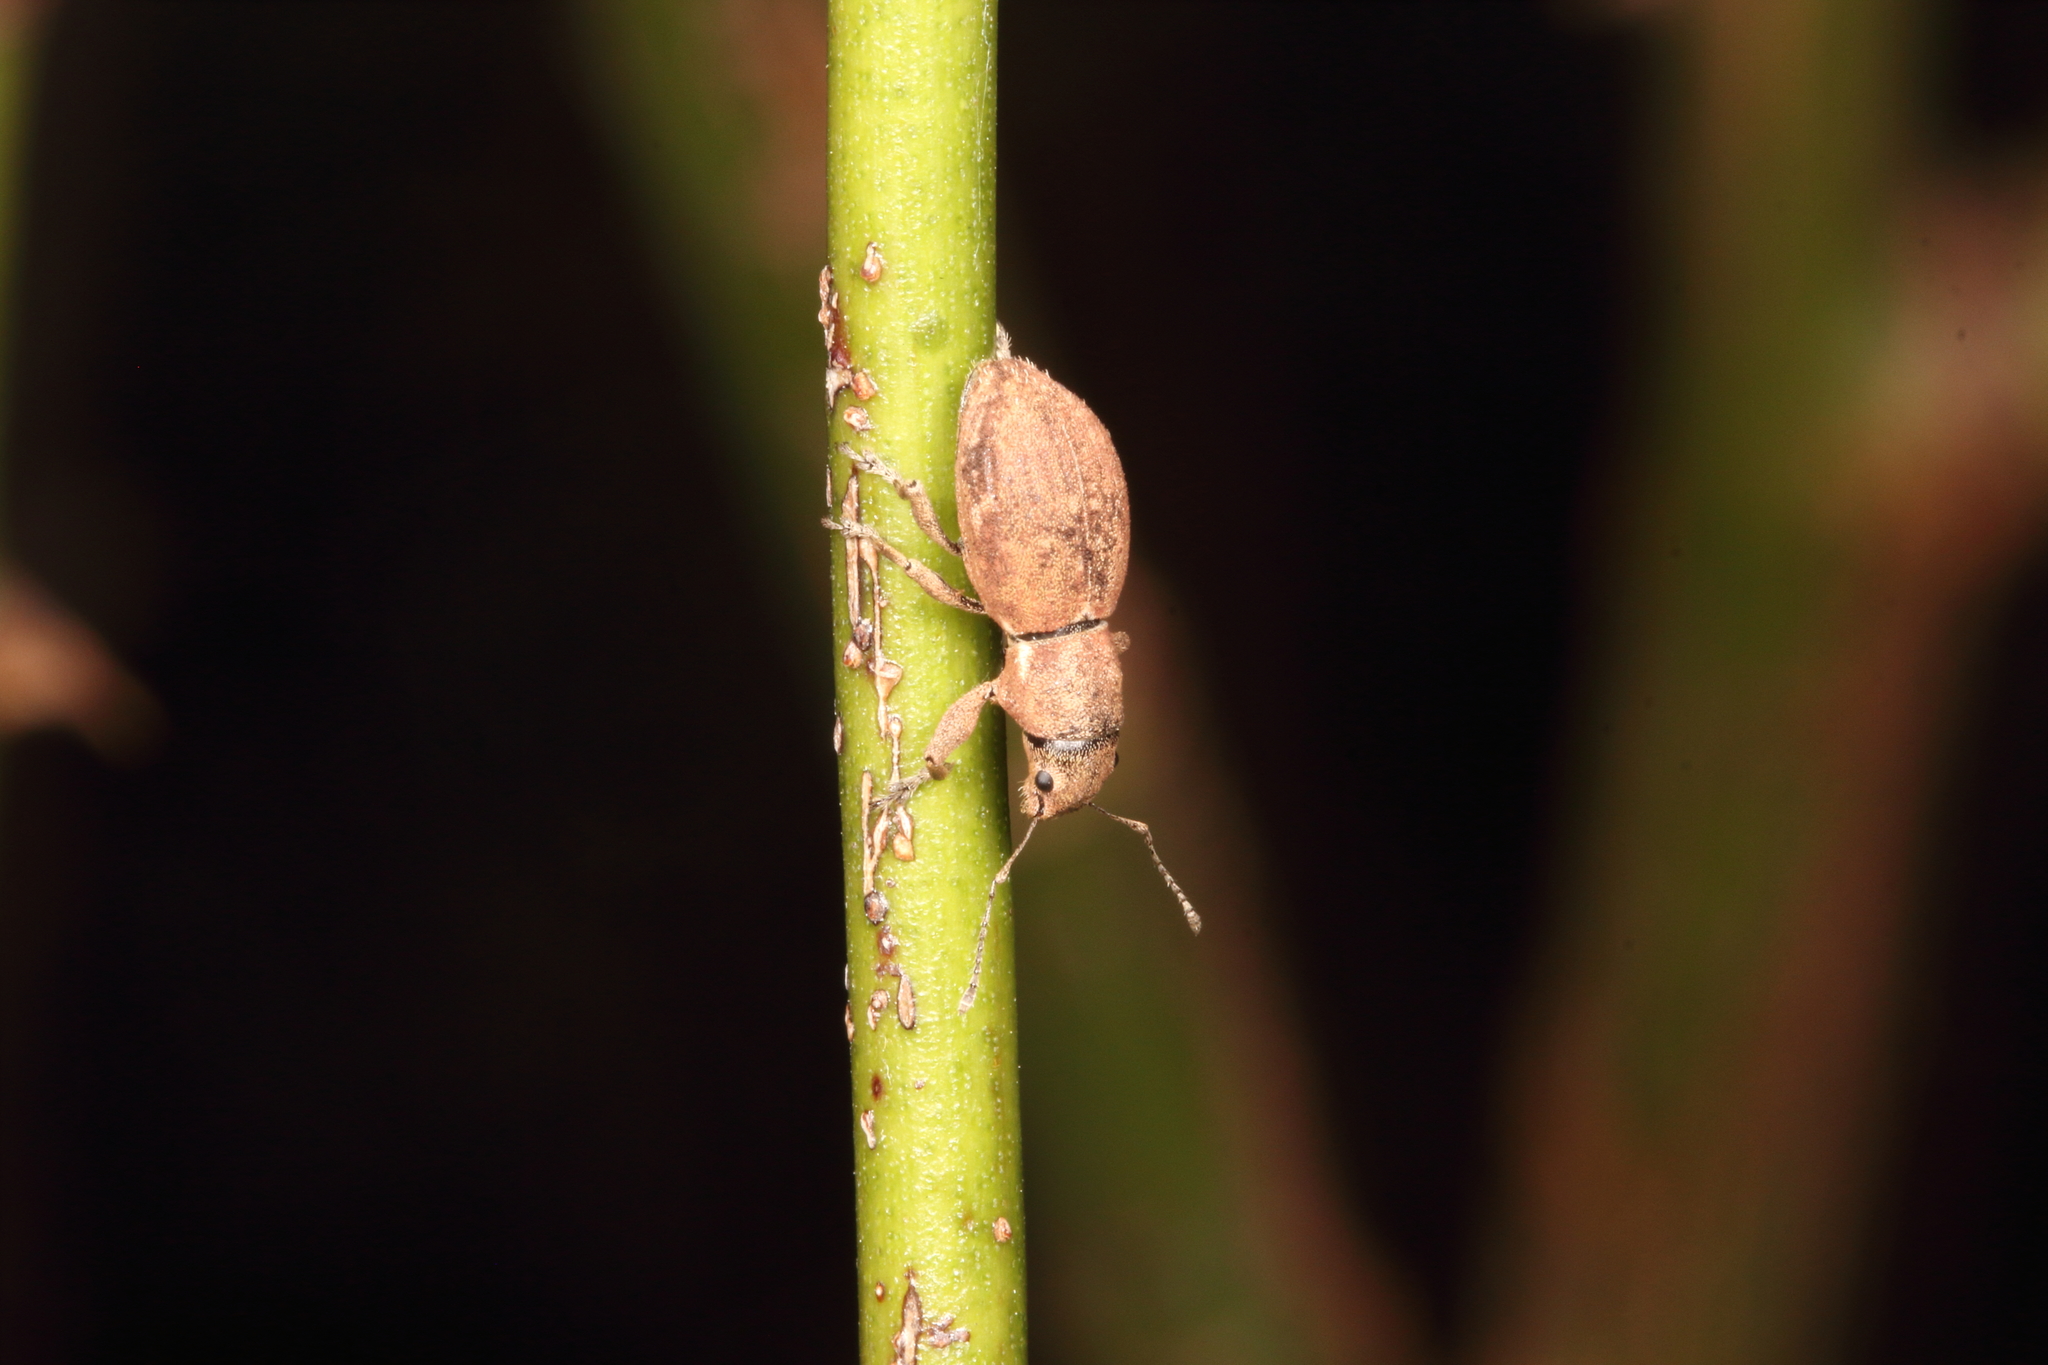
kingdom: Animalia
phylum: Arthropoda
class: Insecta
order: Coleoptera
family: Curculionidae
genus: Naupactus
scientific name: Naupactus cervinus
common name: Fuller rose beetle
